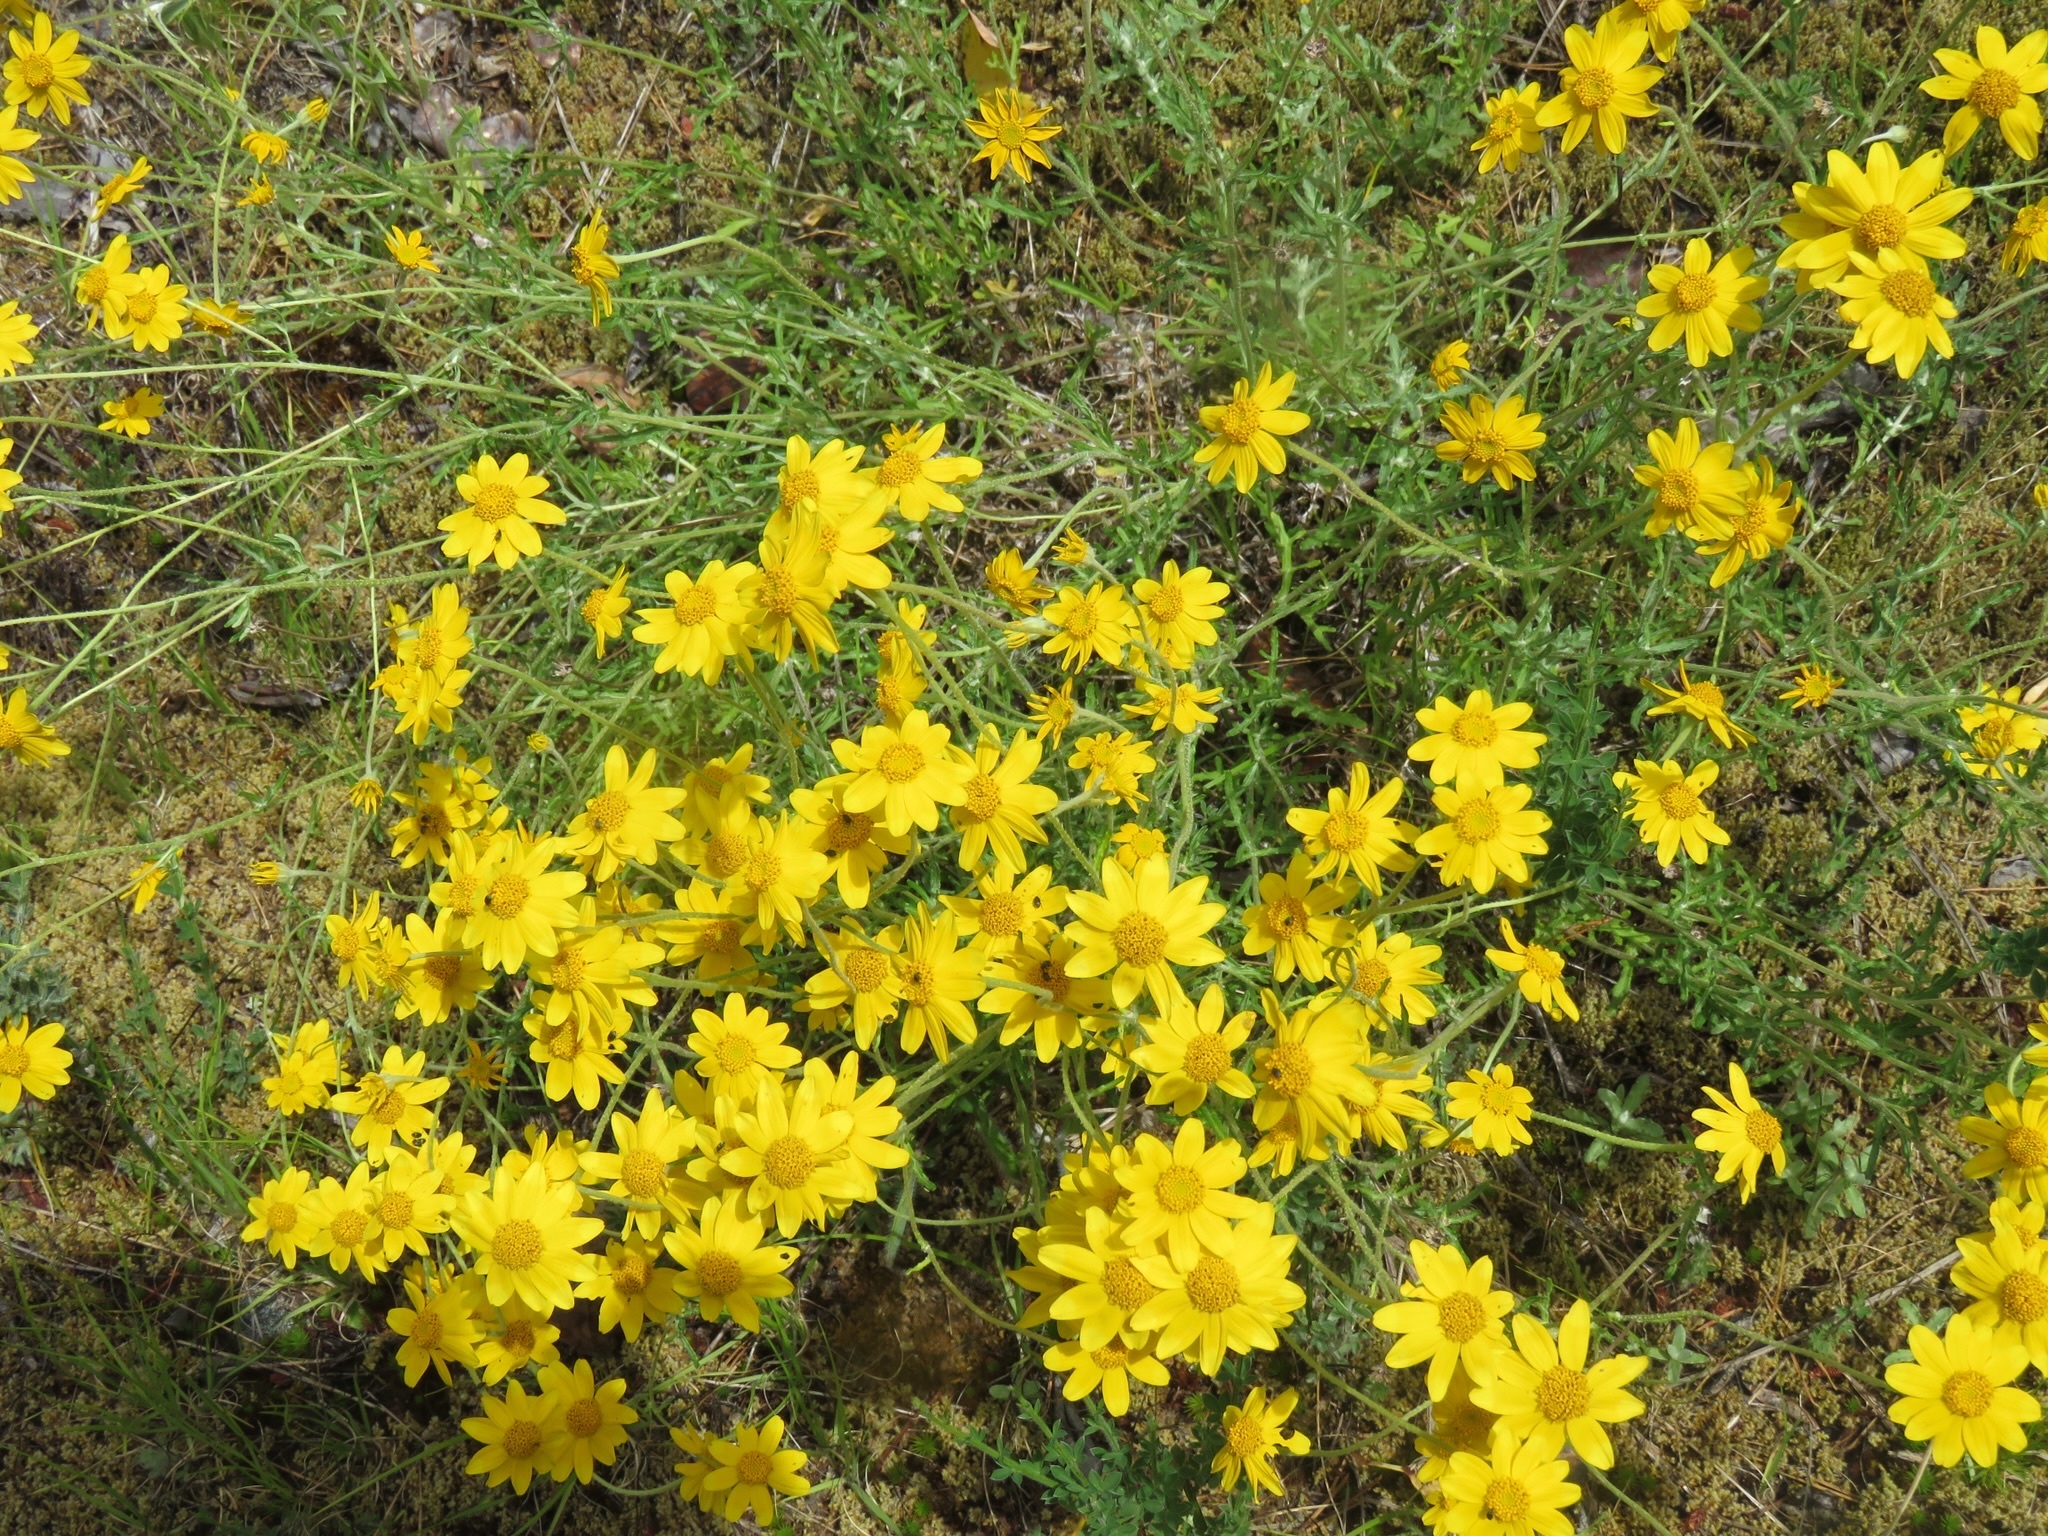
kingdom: Plantae
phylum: Tracheophyta
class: Magnoliopsida
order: Asterales
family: Asteraceae
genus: Eriophyllum
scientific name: Eriophyllum lanatum
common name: Common woolly-sunflower
